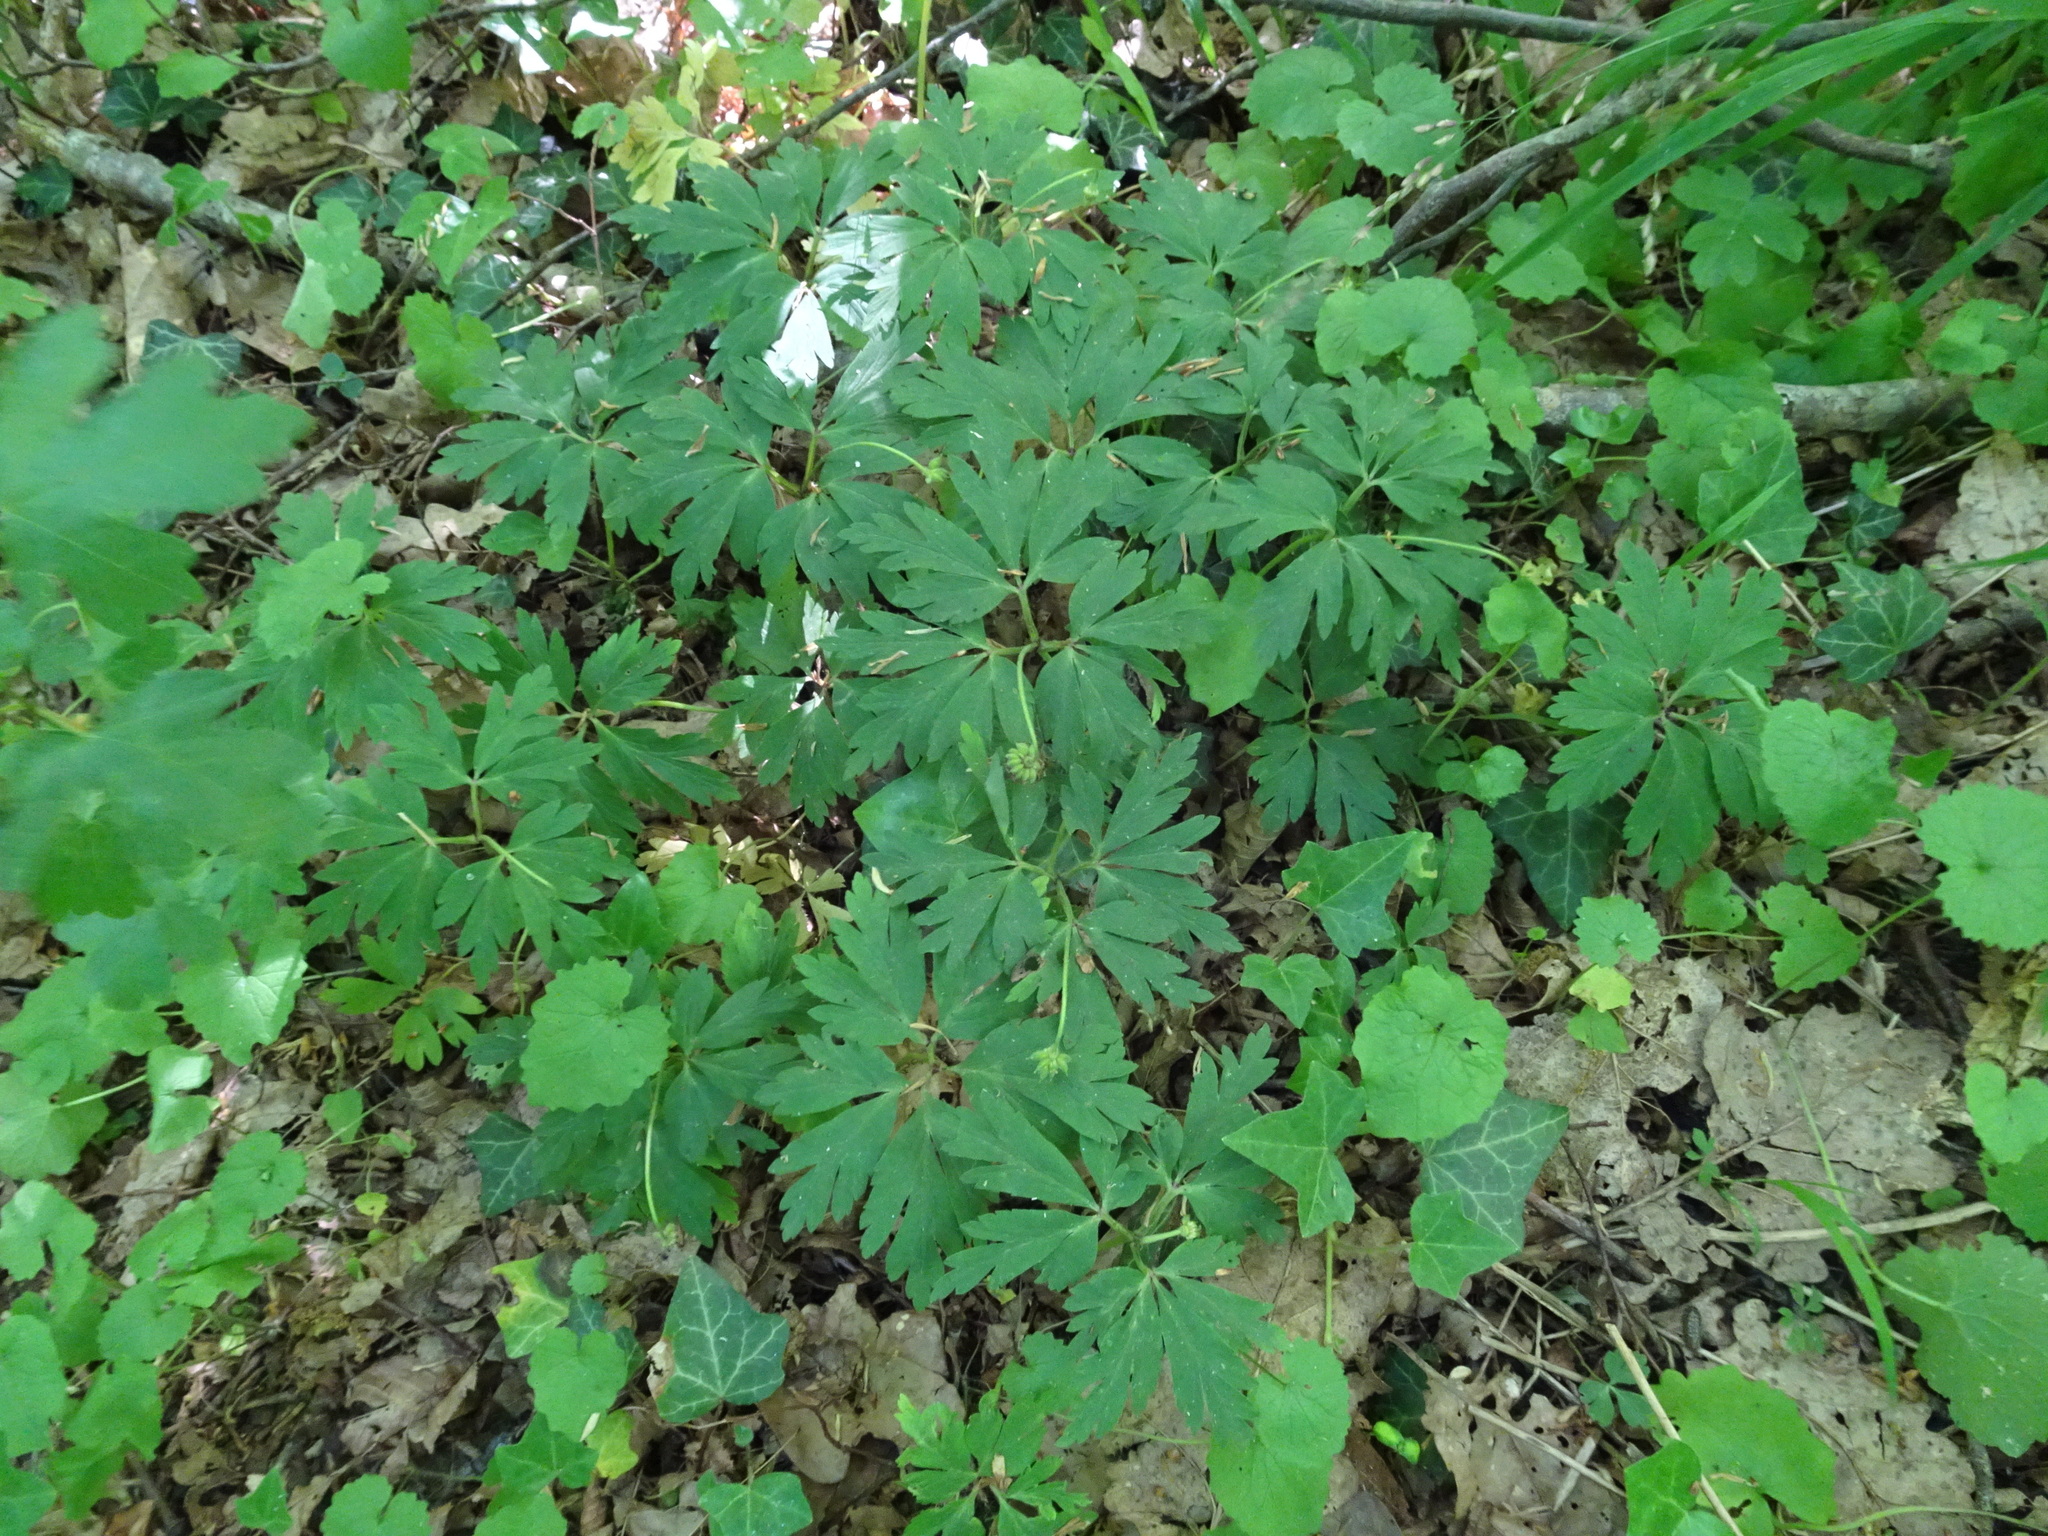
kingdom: Plantae
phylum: Tracheophyta
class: Magnoliopsida
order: Ranunculales
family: Ranunculaceae
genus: Anemone
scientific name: Anemone nemorosa
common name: Wood anemone
